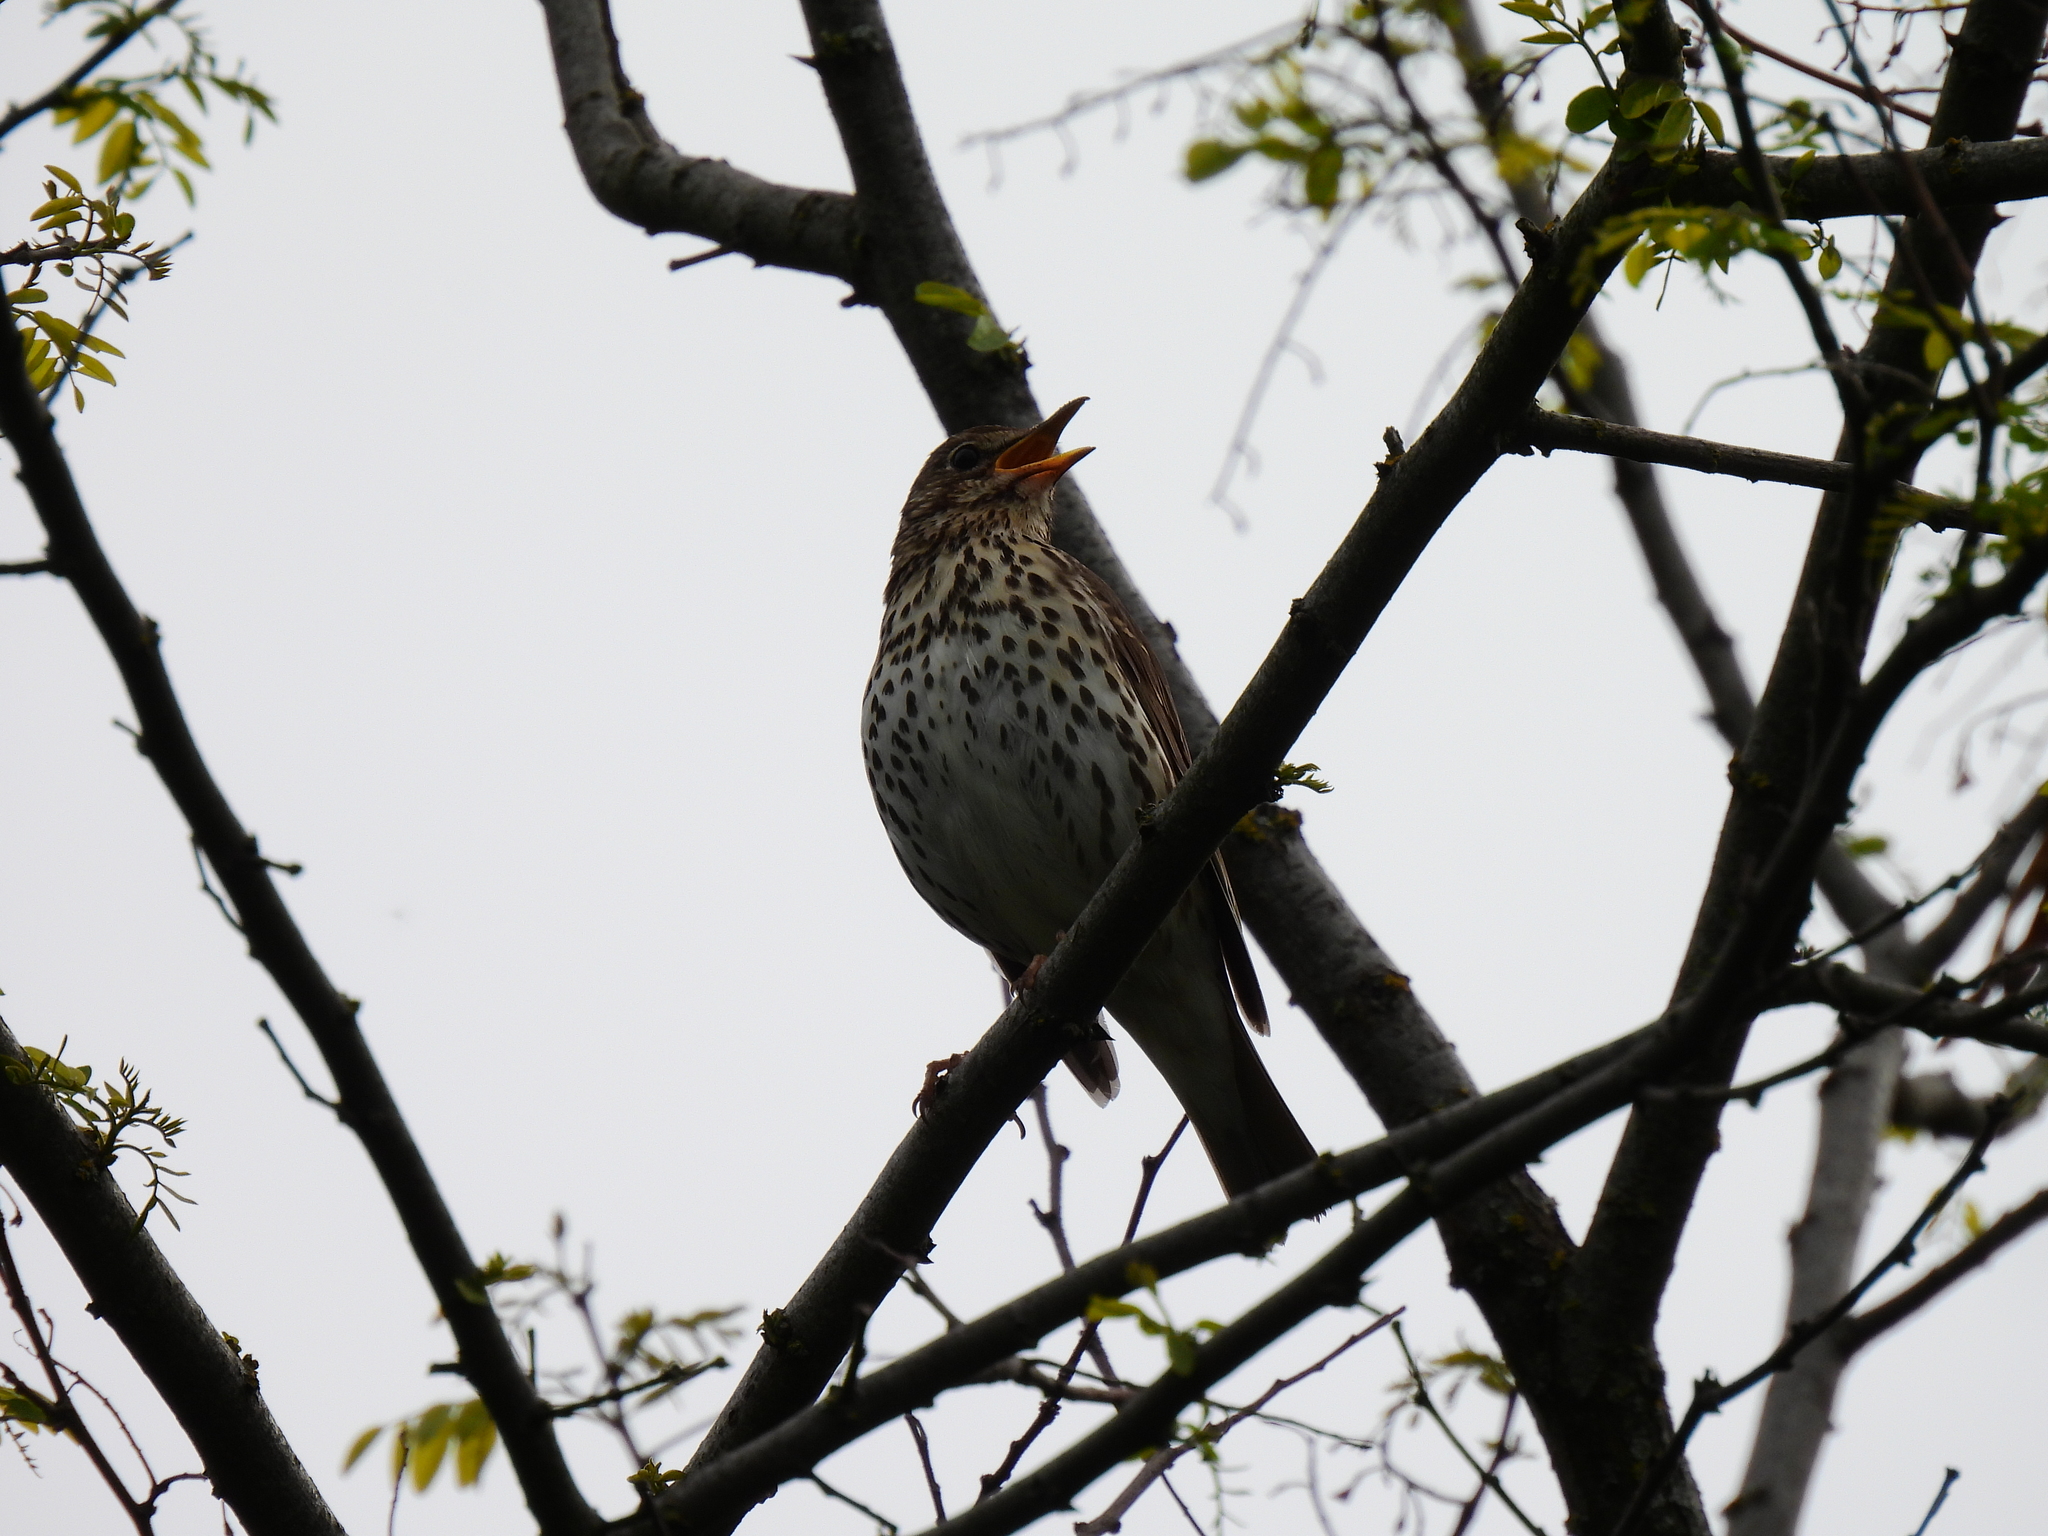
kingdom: Animalia
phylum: Chordata
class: Aves
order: Passeriformes
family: Turdidae
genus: Turdus
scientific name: Turdus philomelos
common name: Song thrush
